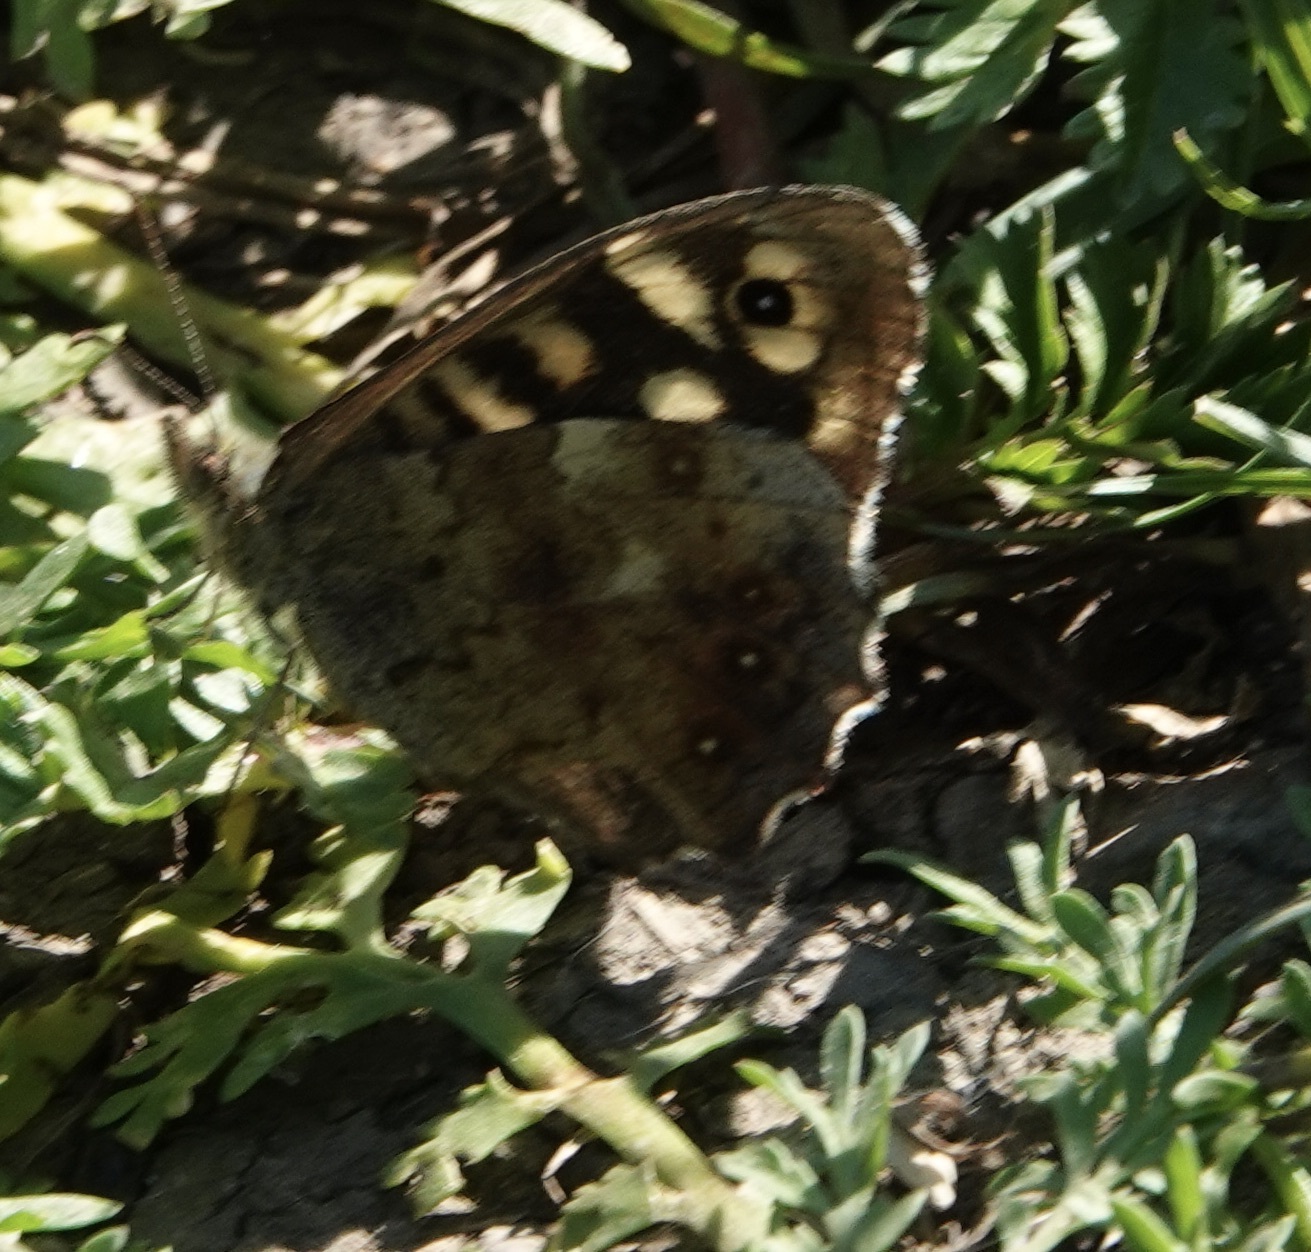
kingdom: Animalia
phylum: Arthropoda
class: Insecta
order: Lepidoptera
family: Nymphalidae
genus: Pararge
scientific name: Pararge aegeria
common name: Speckled wood
